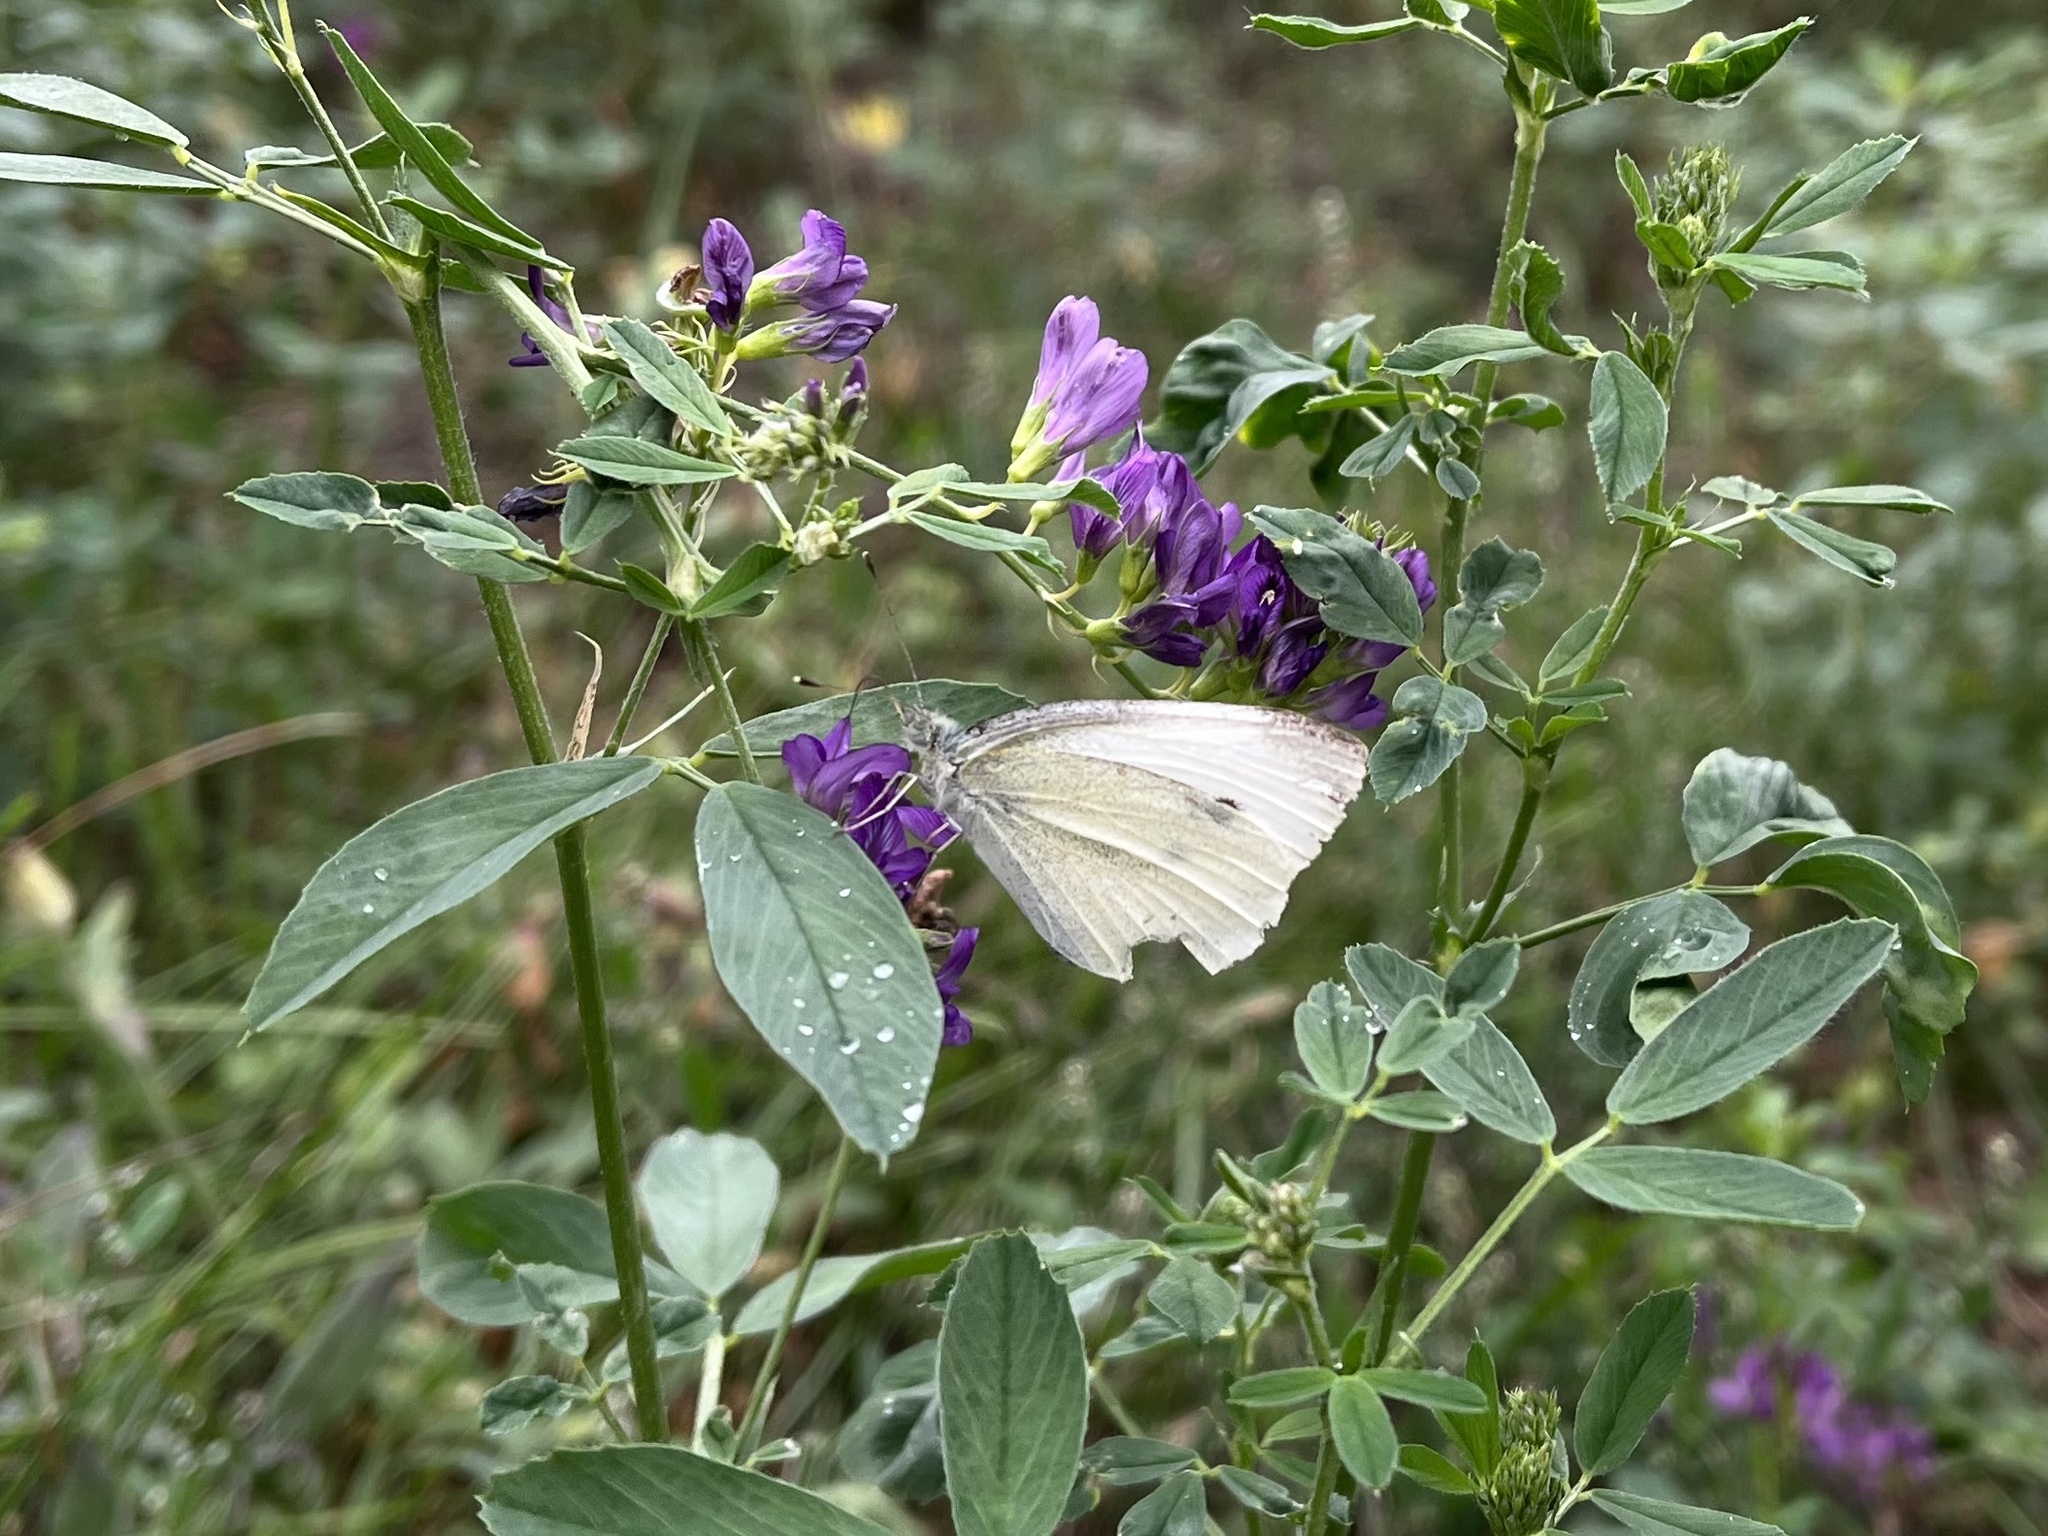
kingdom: Animalia
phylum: Arthropoda
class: Insecta
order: Lepidoptera
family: Pieridae
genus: Pieris
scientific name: Pieris rapae
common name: Small white
